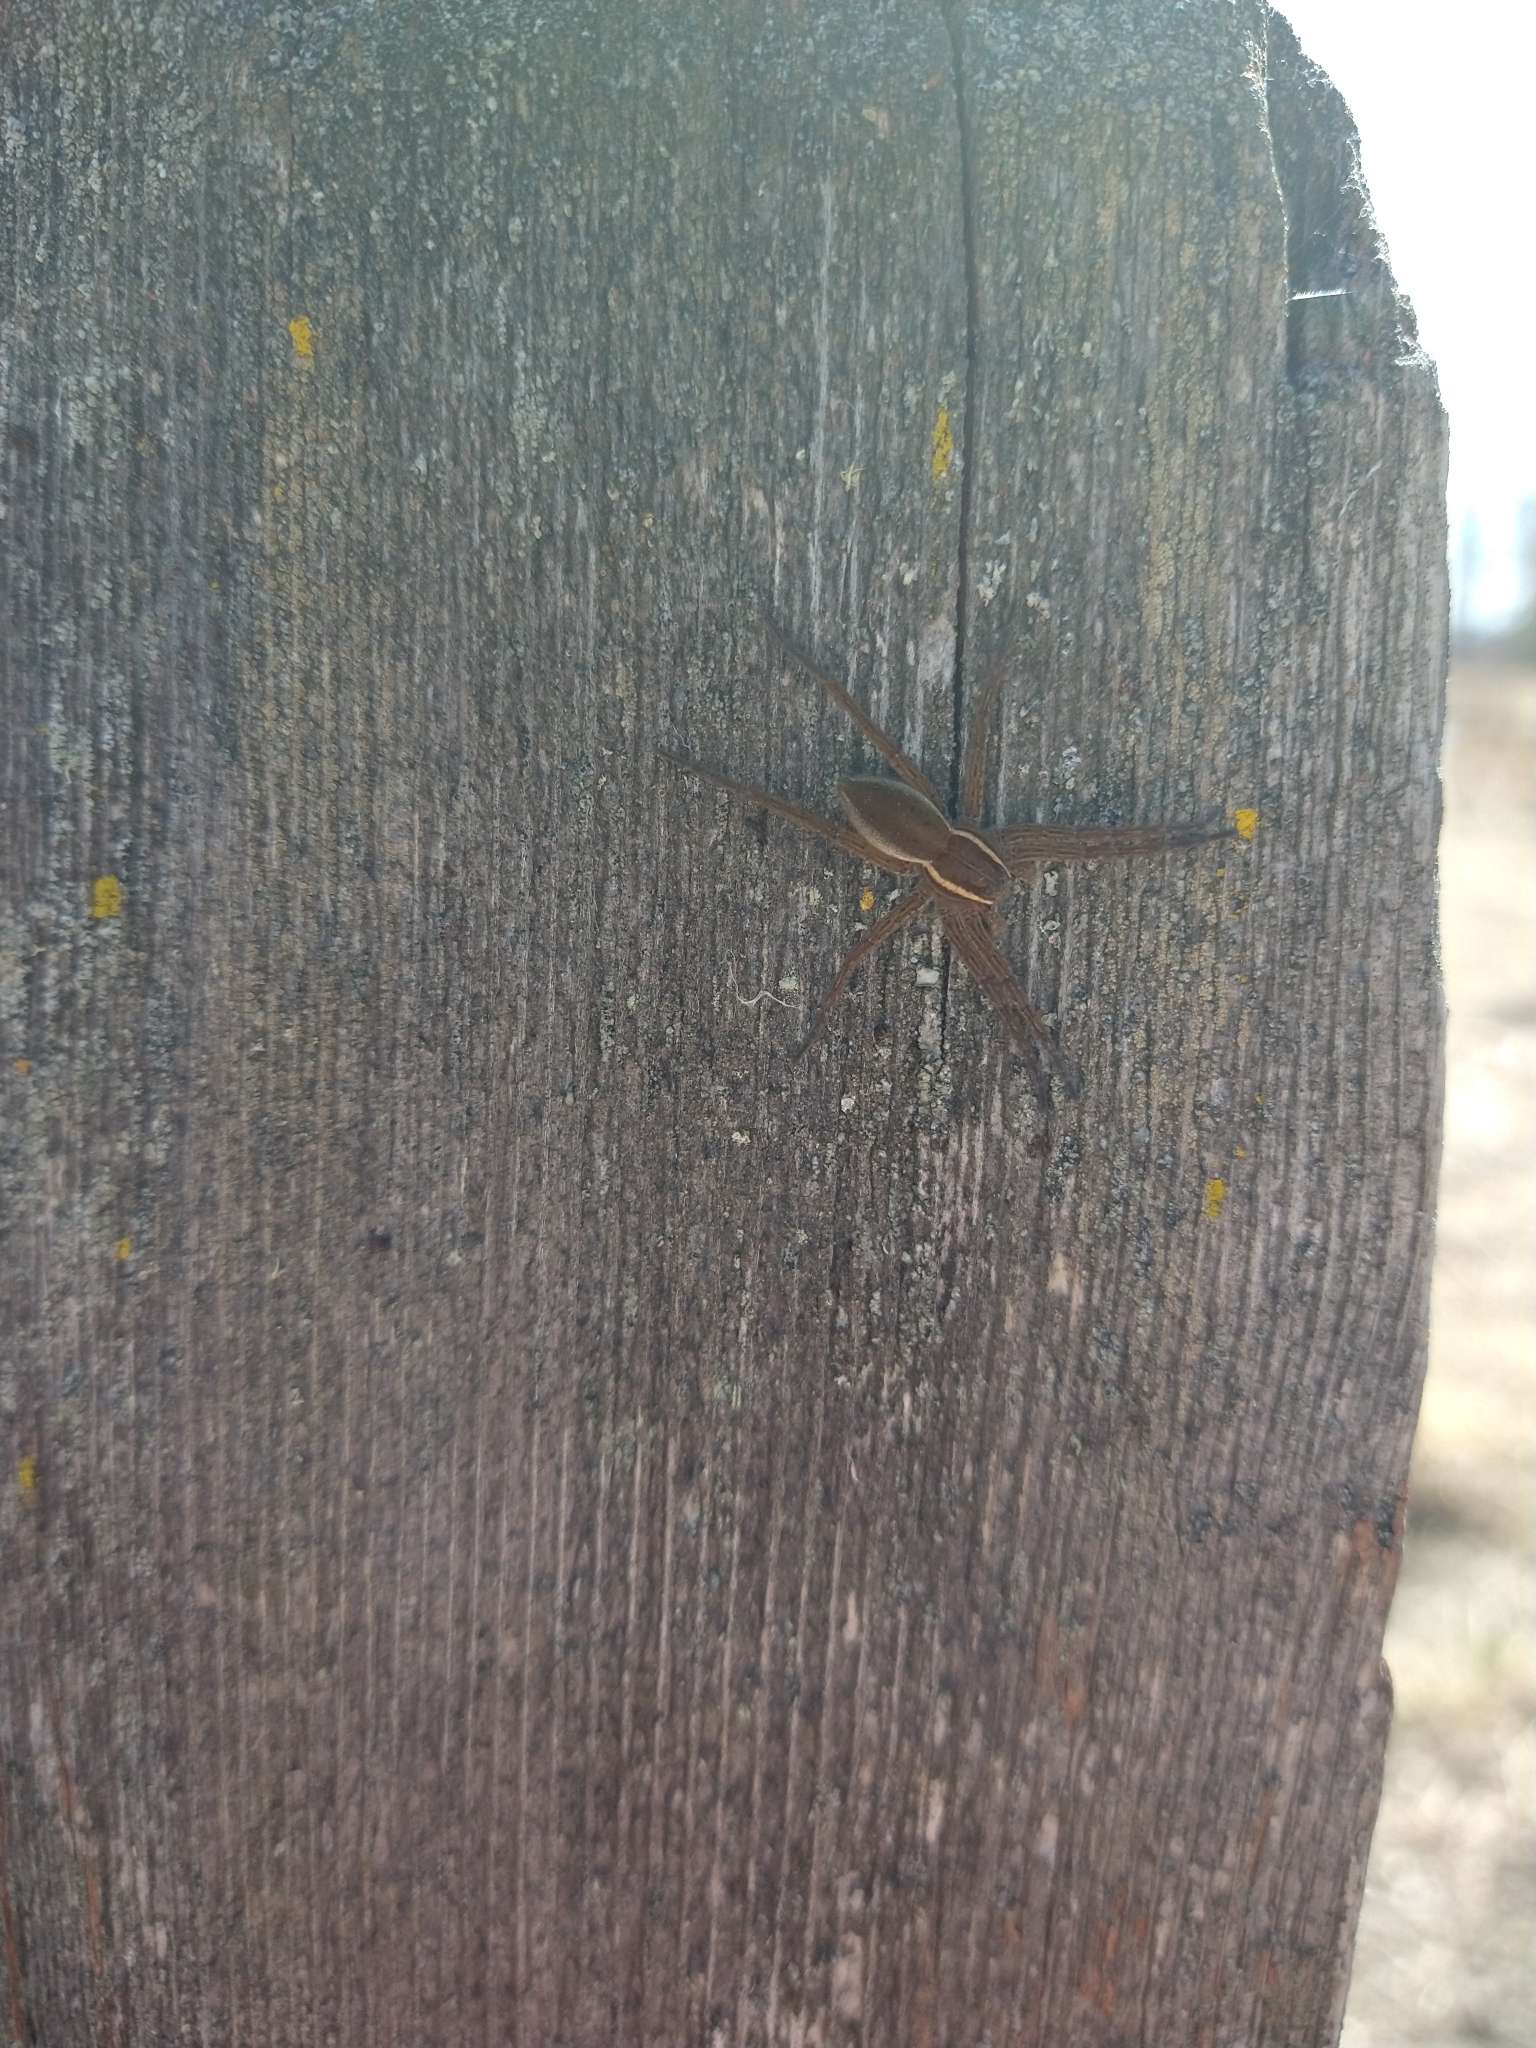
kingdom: Animalia
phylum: Arthropoda
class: Arachnida
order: Araneae
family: Pisauridae
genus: Dolomedes
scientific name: Dolomedes triton
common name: Six-spotted fishing spider
